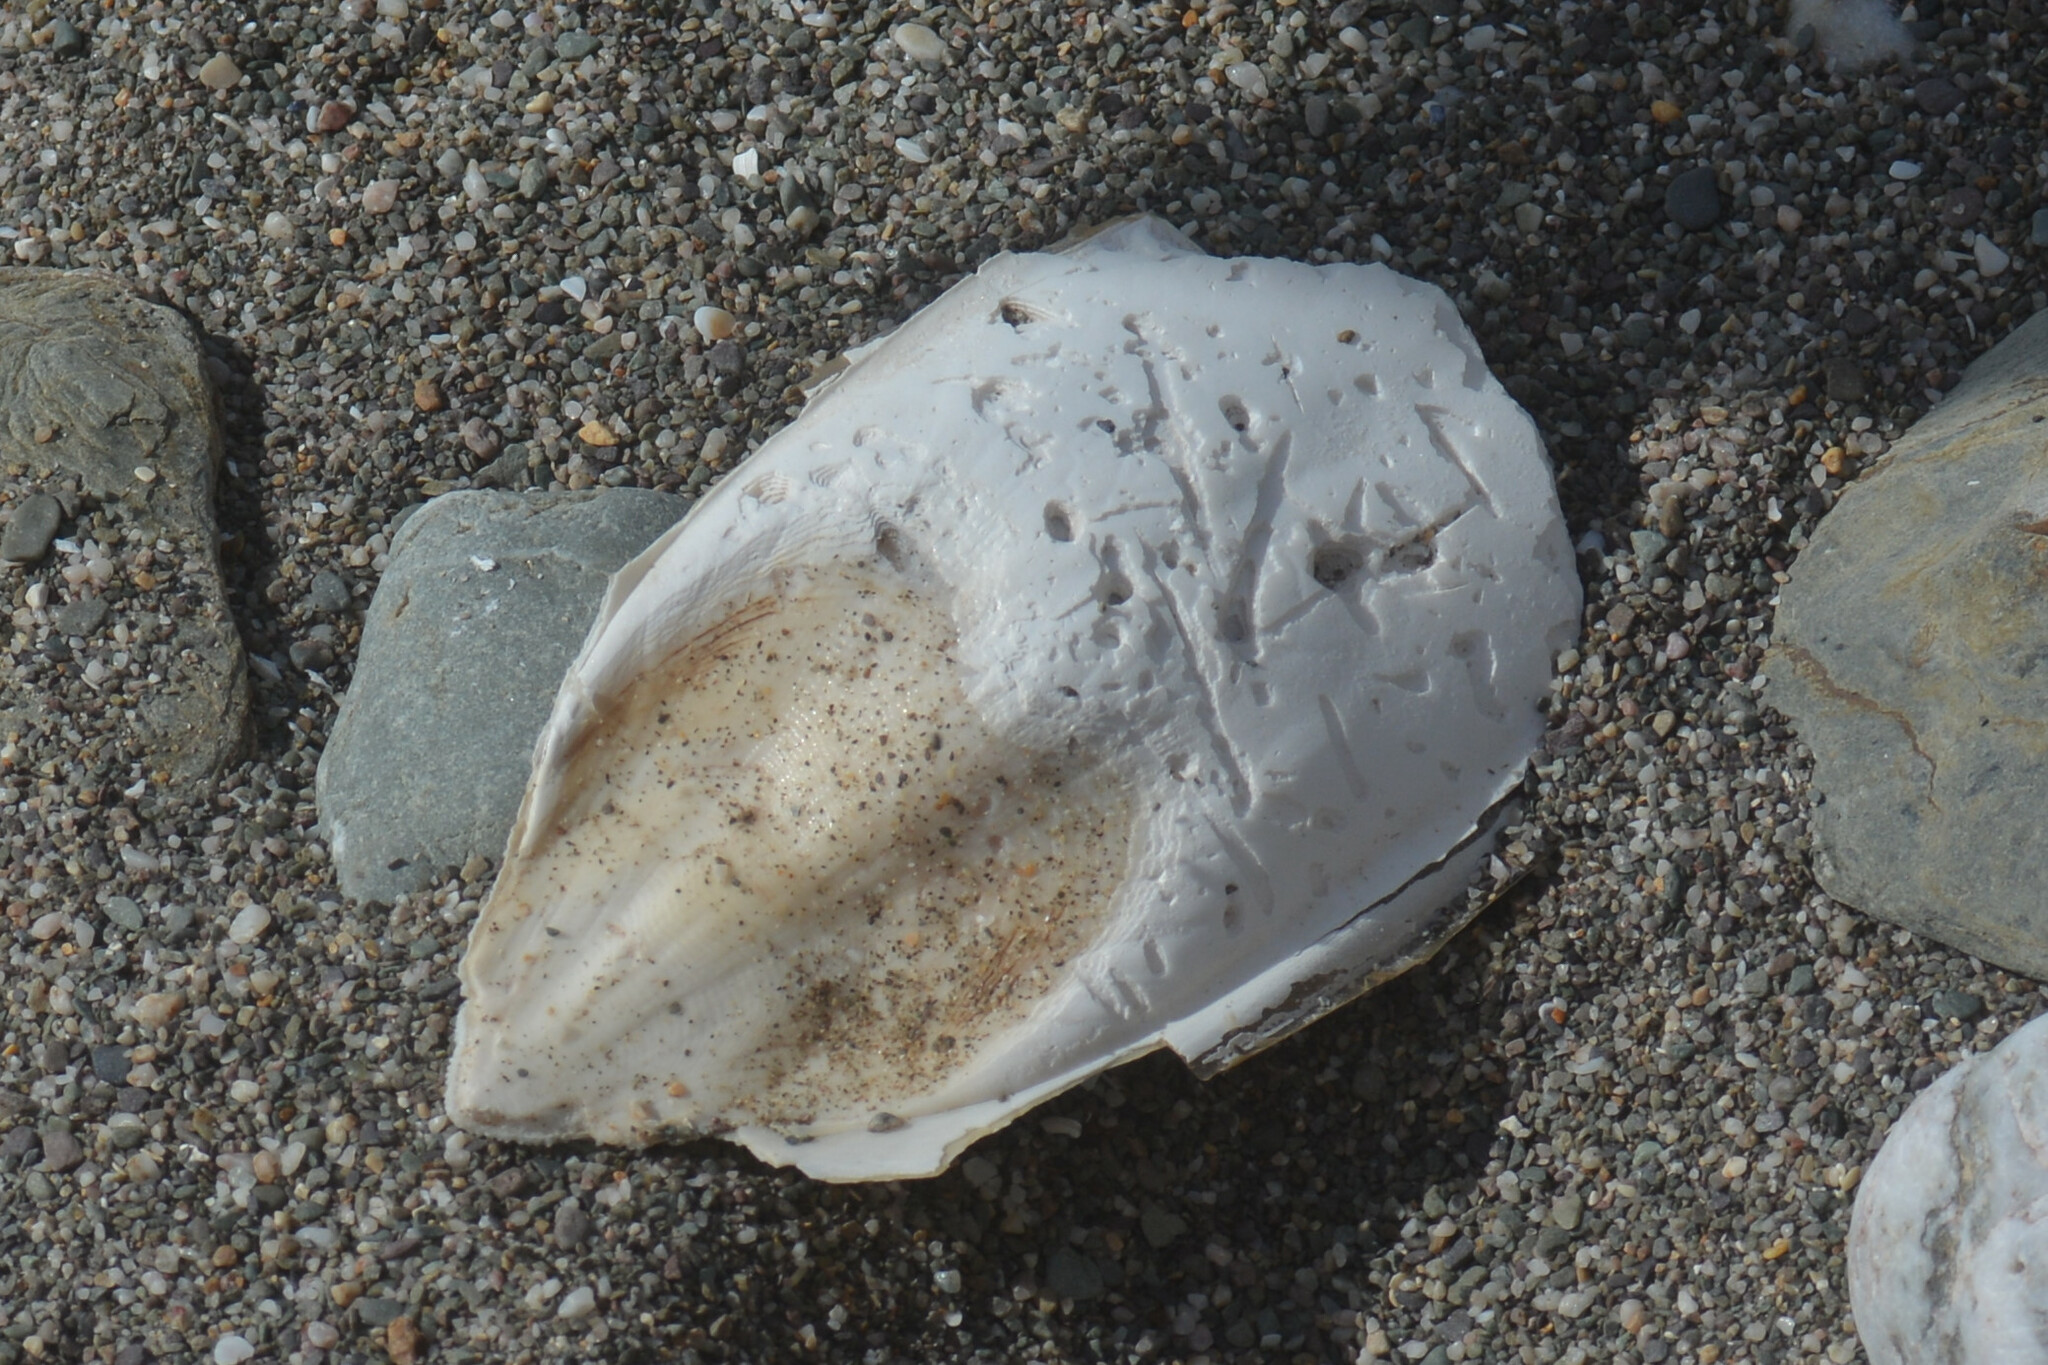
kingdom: Animalia
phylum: Mollusca
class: Cephalopoda
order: Sepiida
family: Sepiidae
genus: Sepia
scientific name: Sepia officinalis
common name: Common cuttlefish
